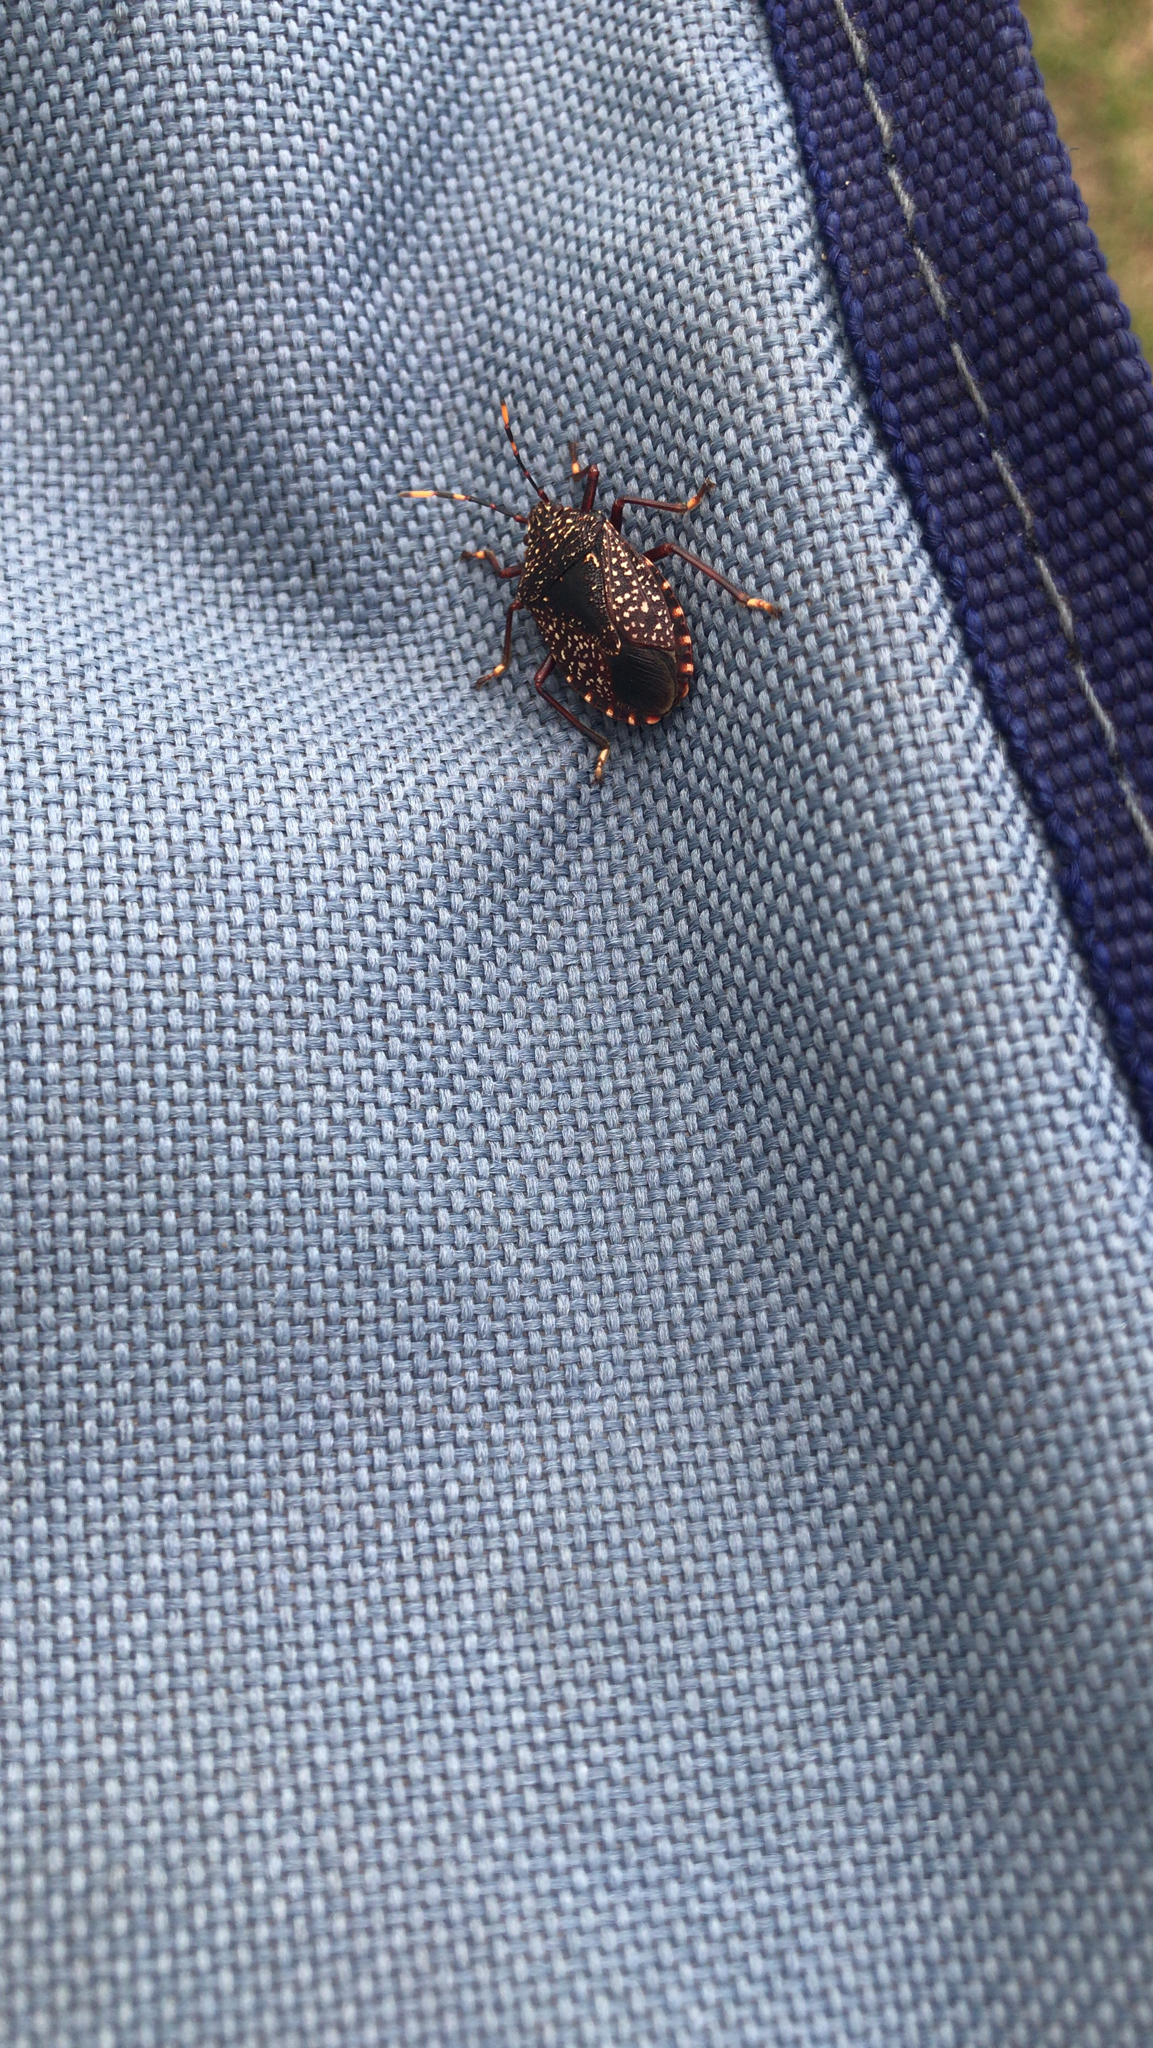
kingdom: Animalia
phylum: Arthropoda
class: Insecta
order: Hemiptera
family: Pentatomidae
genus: Notius
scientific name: Notius
